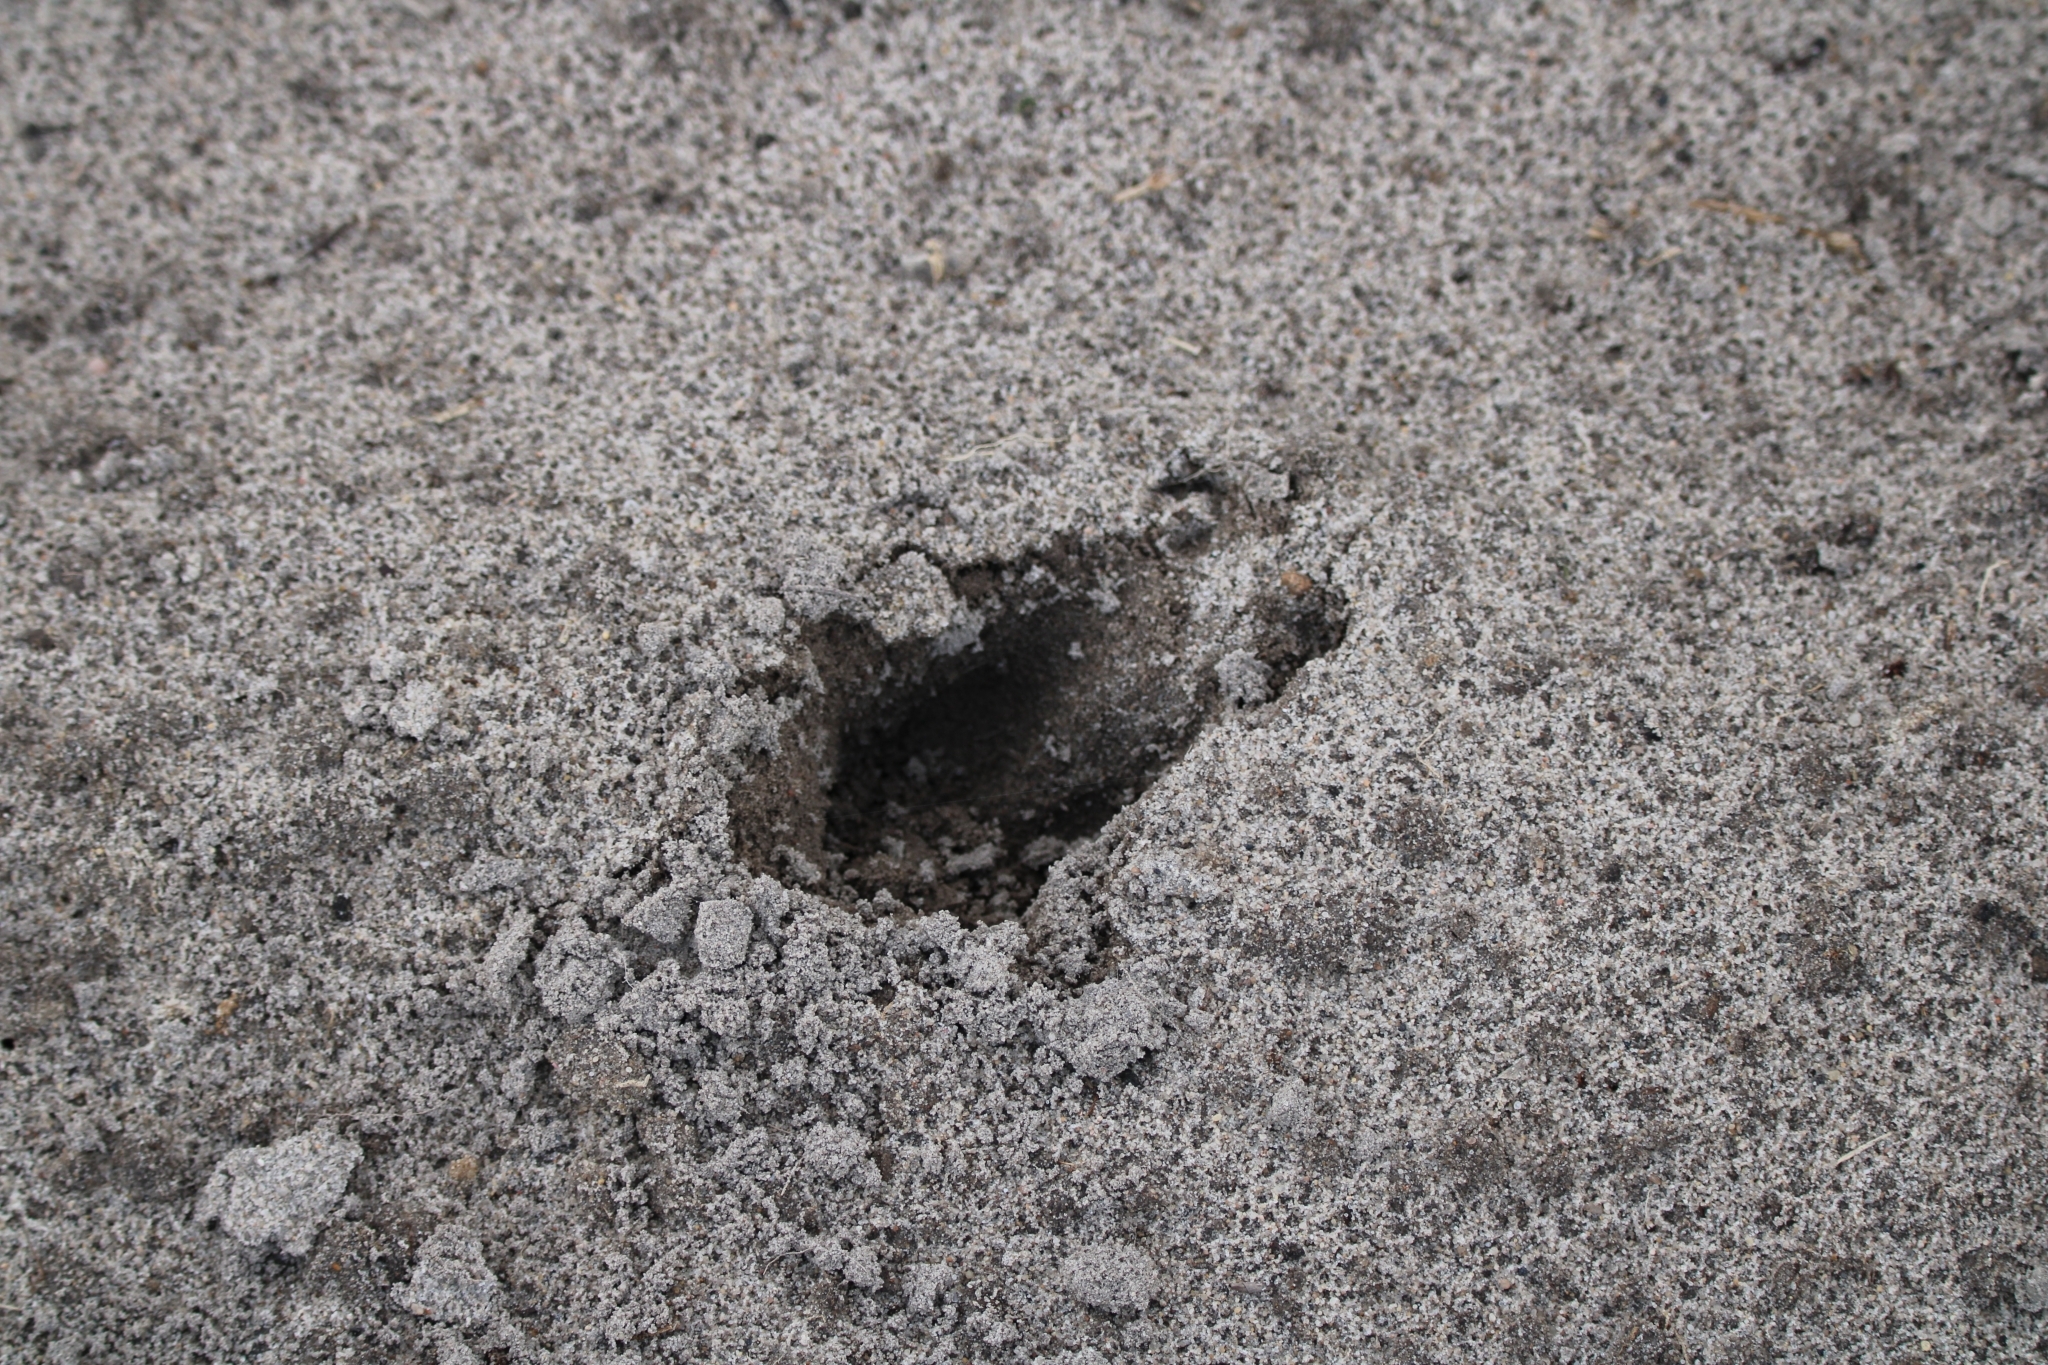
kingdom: Animalia
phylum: Chordata
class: Mammalia
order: Artiodactyla
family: Cervidae
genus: Capreolus
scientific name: Capreolus capreolus
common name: Western roe deer
